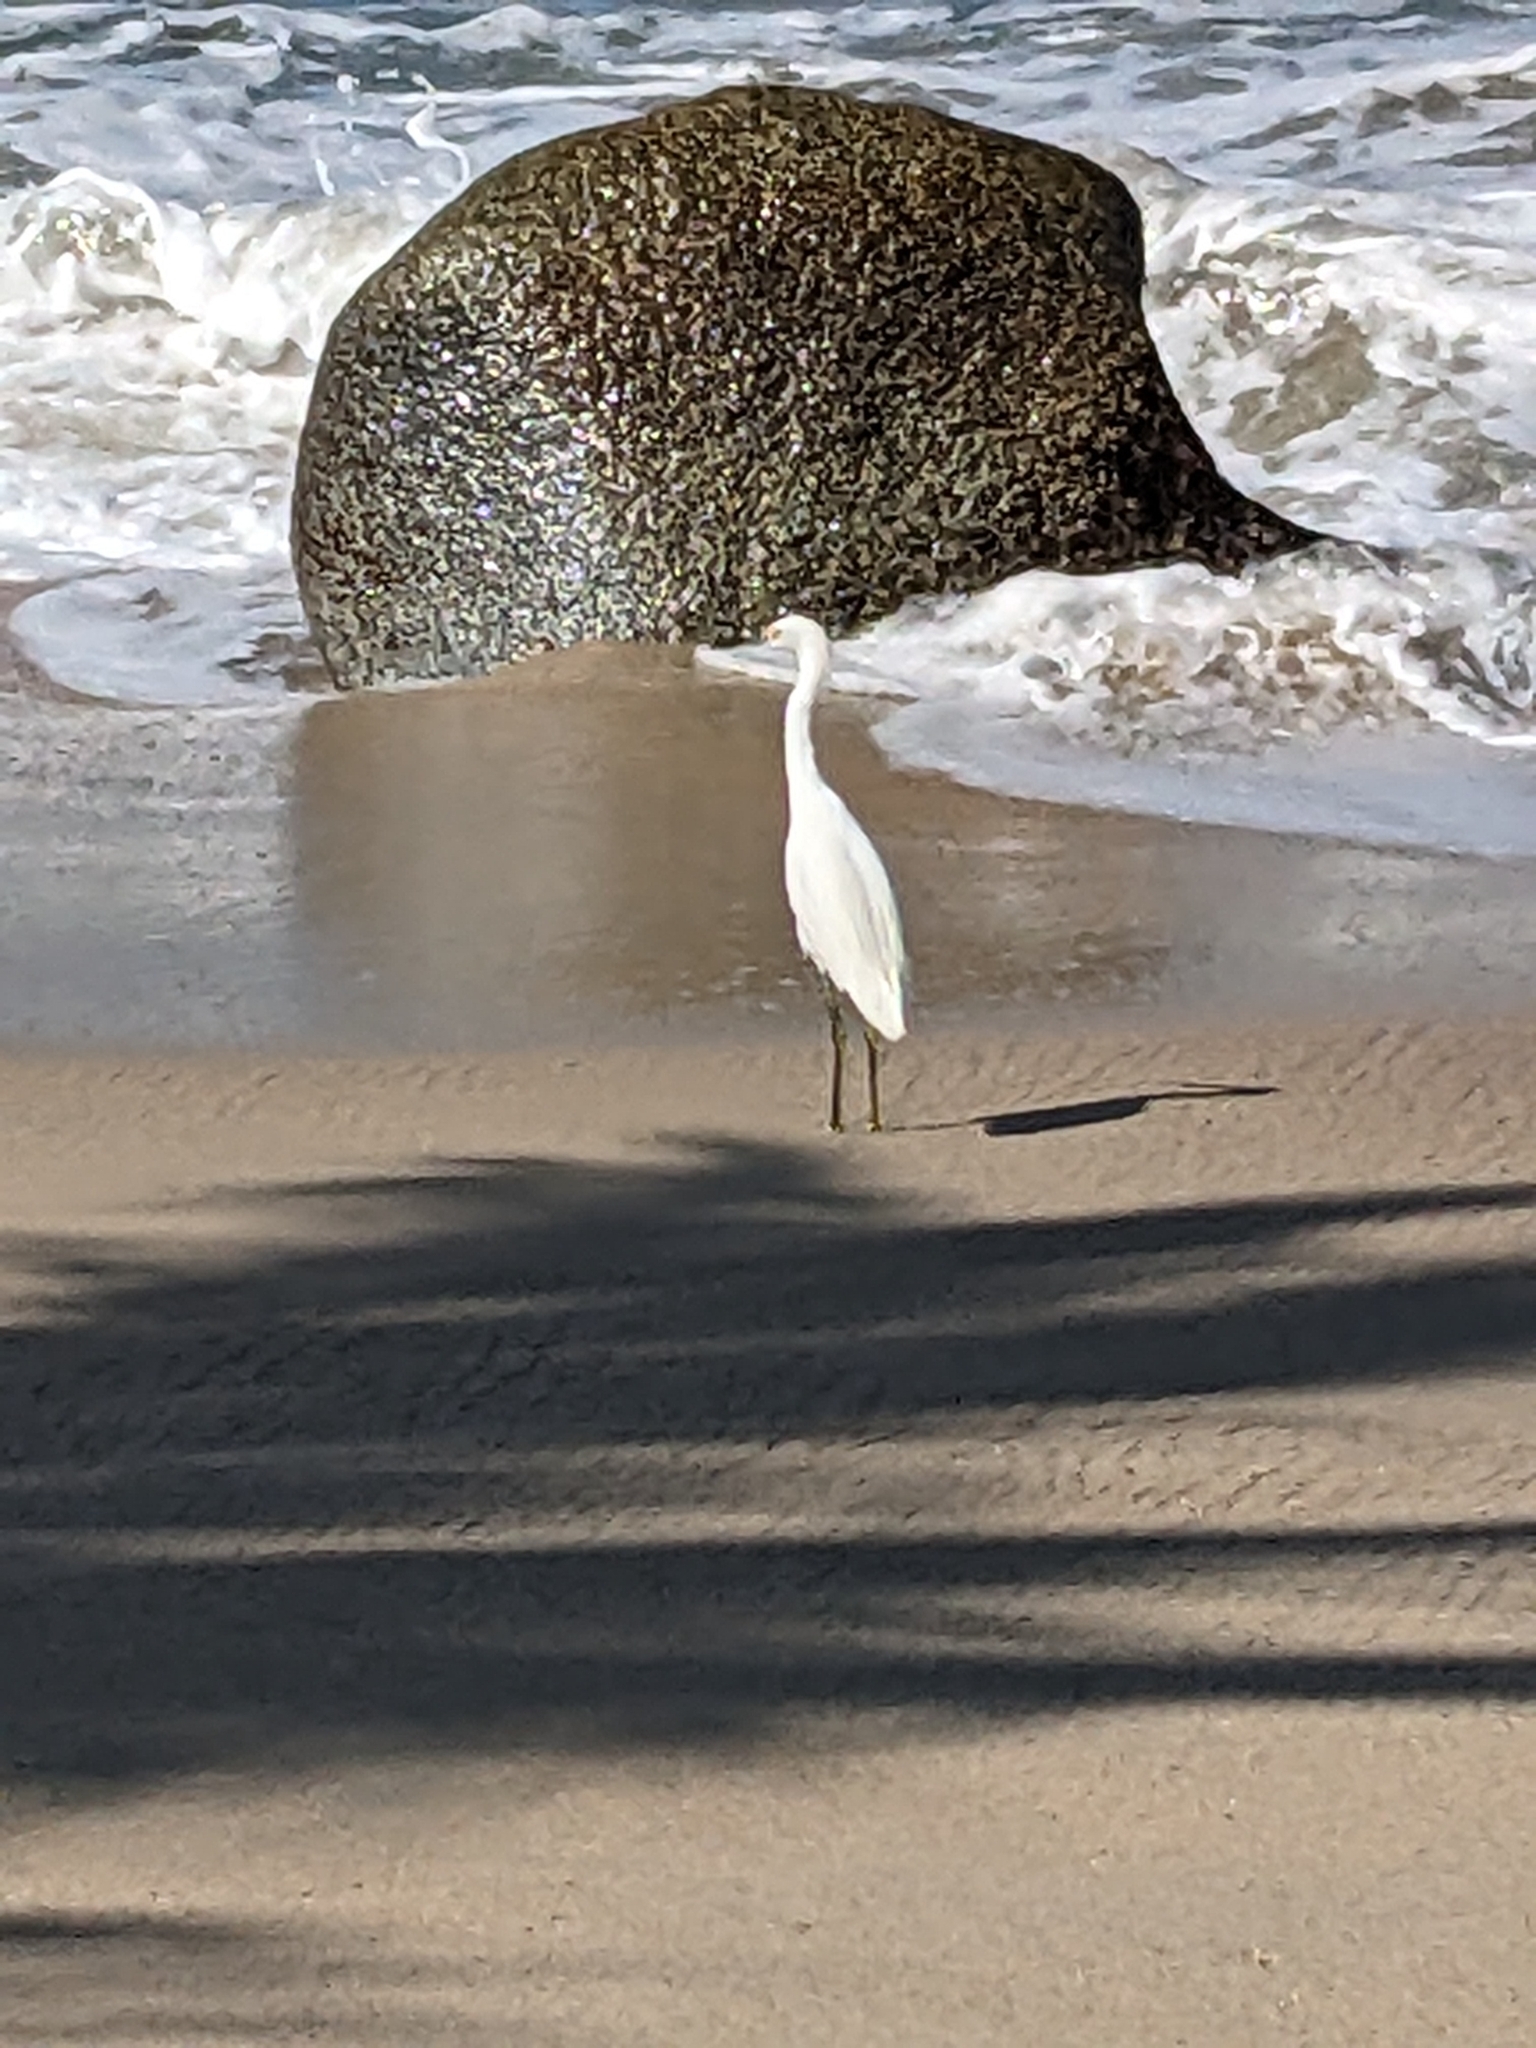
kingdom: Animalia
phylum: Chordata
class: Aves
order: Pelecaniformes
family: Ardeidae
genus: Egretta
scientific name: Egretta thula
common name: Snowy egret
